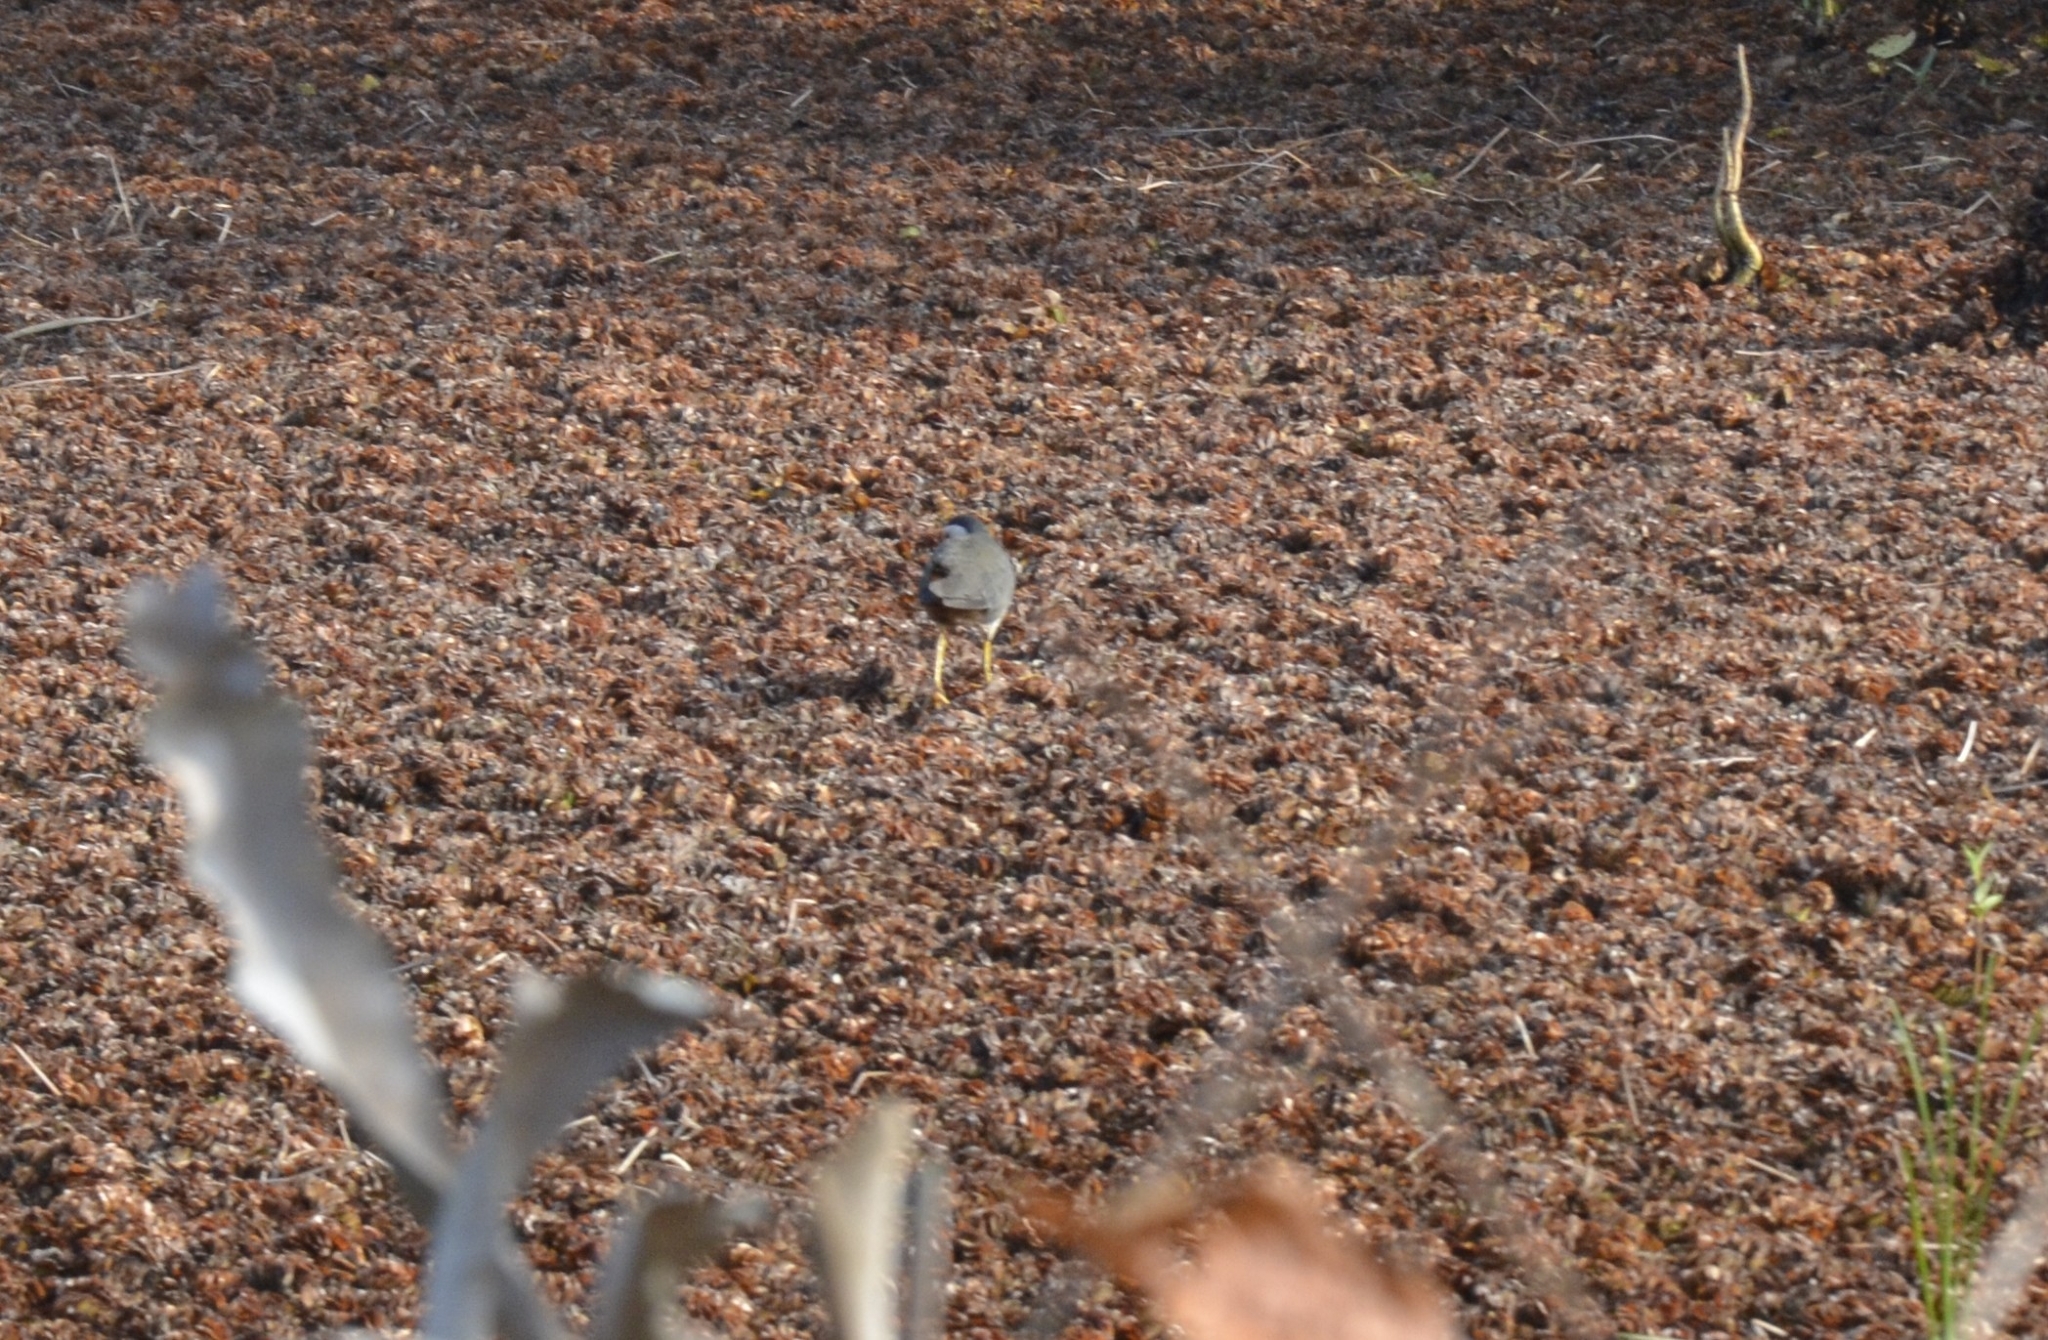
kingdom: Animalia
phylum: Chordata
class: Aves
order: Gruiformes
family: Rallidae
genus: Amaurornis
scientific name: Amaurornis phoenicurus
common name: White-breasted waterhen
